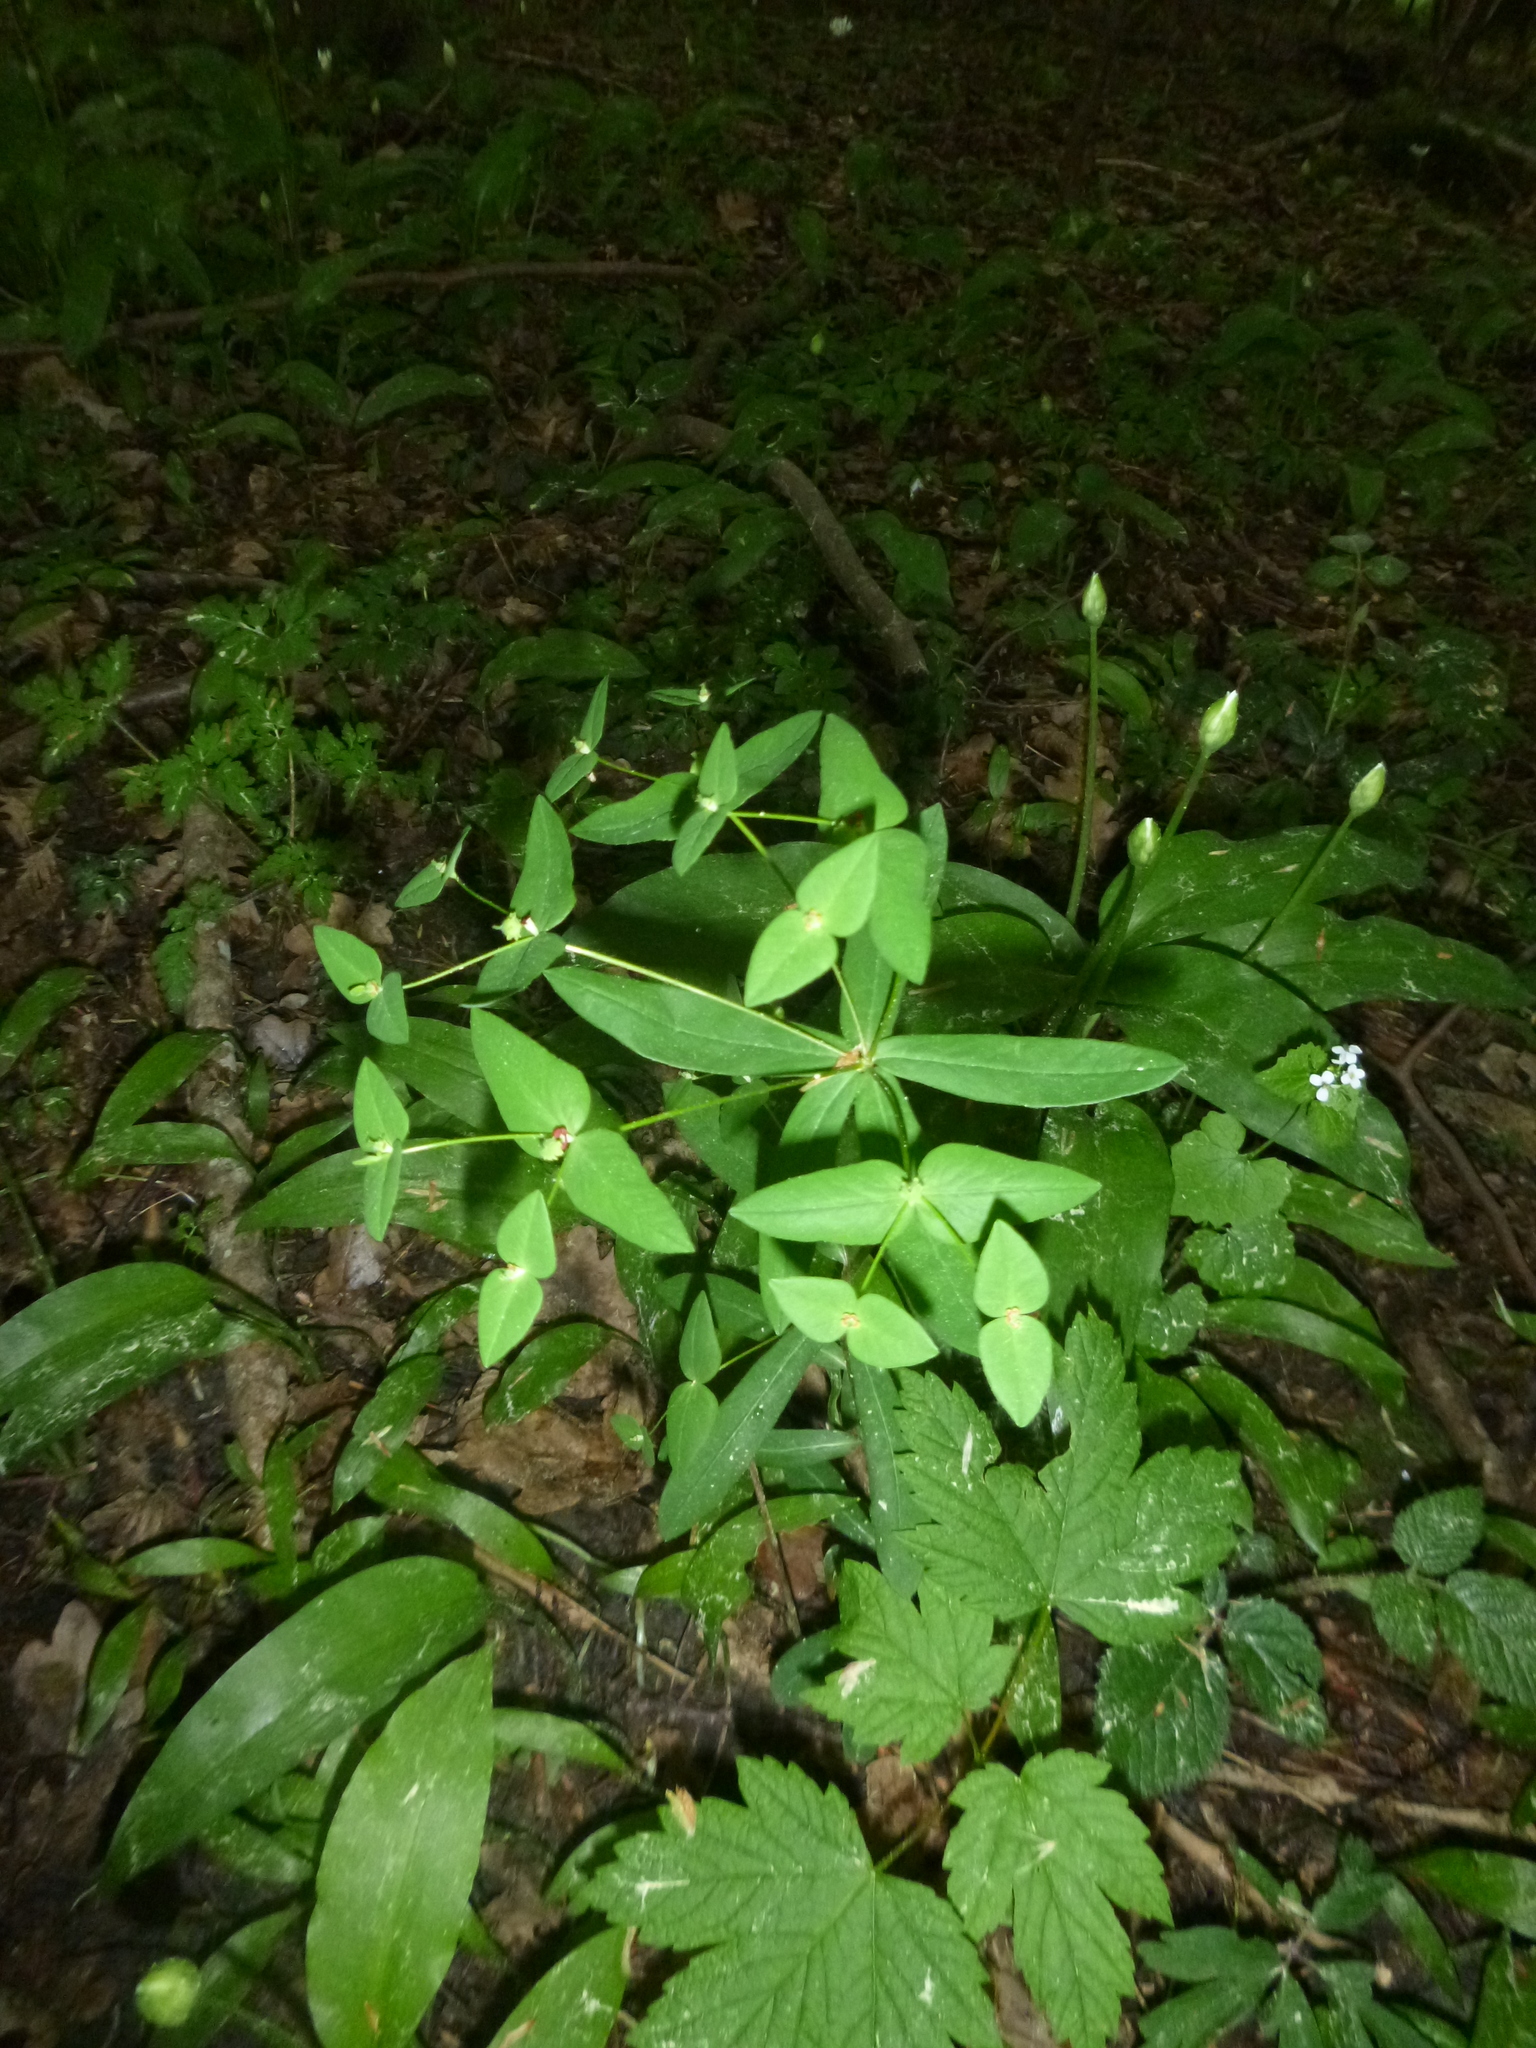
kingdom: Plantae
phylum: Tracheophyta
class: Magnoliopsida
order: Malpighiales
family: Euphorbiaceae
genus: Euphorbia
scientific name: Euphorbia dulcis
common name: Sweet spurge
